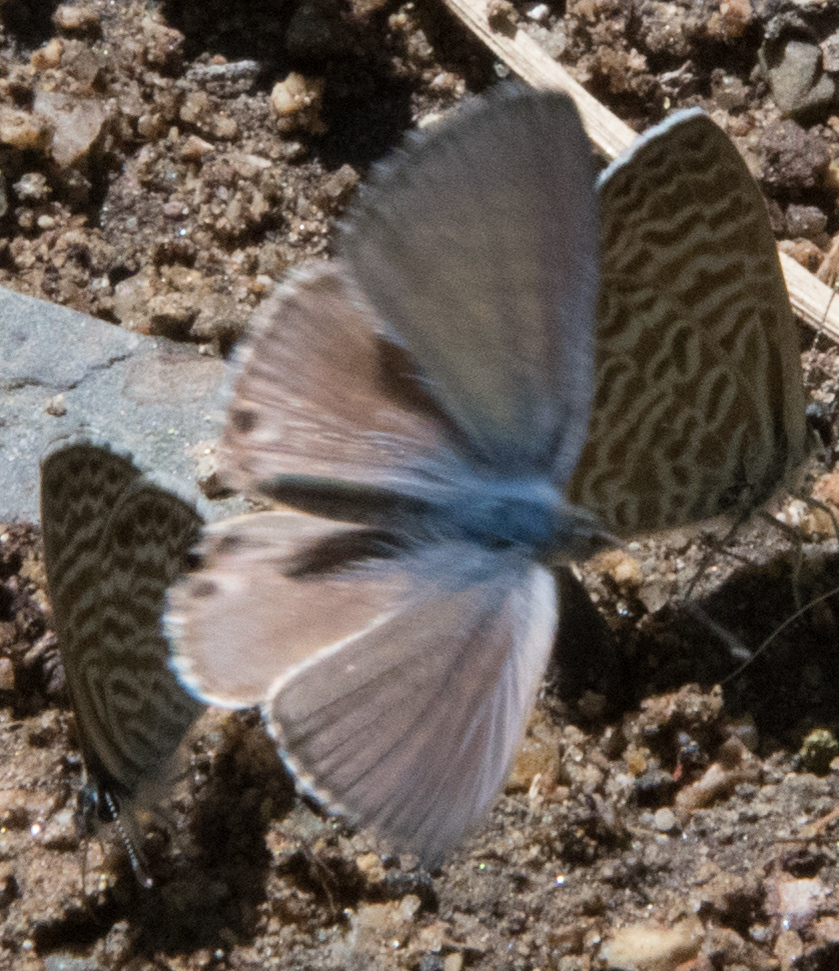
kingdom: Animalia
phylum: Arthropoda
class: Insecta
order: Lepidoptera
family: Lycaenidae
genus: Leptotes
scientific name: Leptotes marina
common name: Marine blue
